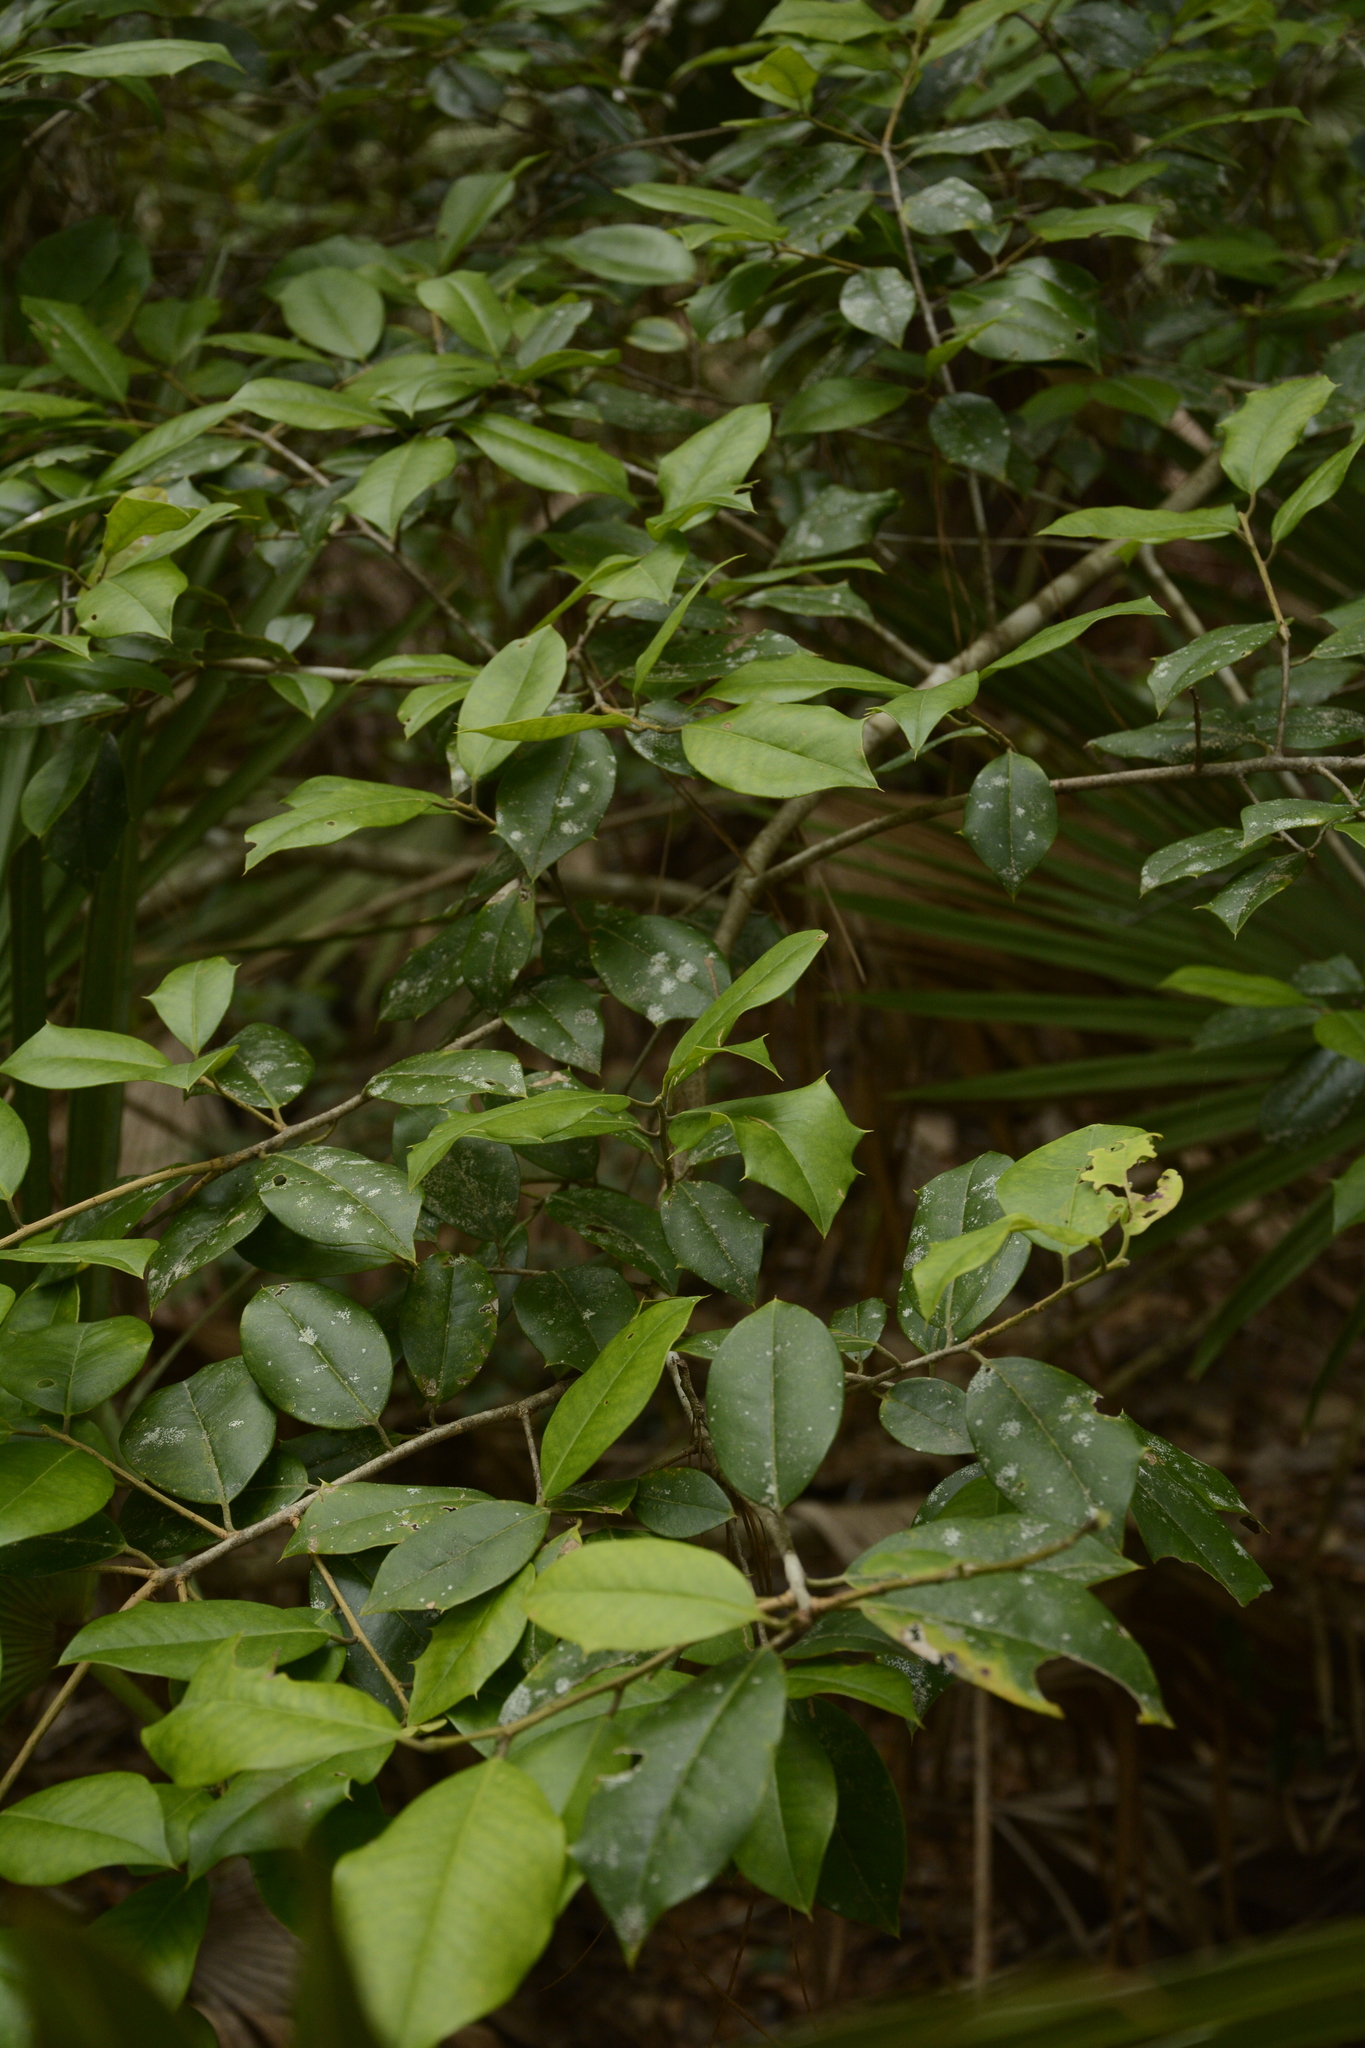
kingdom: Plantae
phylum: Tracheophyta
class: Magnoliopsida
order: Aquifoliales
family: Aquifoliaceae
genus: Ilex
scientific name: Ilex opaca
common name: American holly
